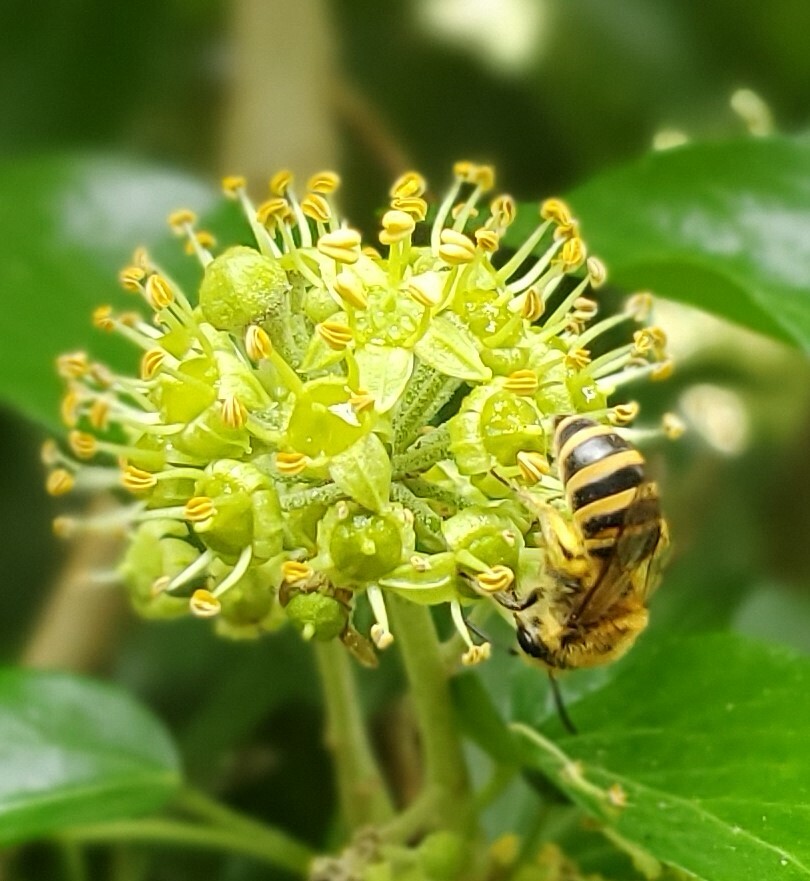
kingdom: Animalia
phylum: Arthropoda
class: Insecta
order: Hymenoptera
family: Colletidae
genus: Colletes
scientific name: Colletes hederae
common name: Ivy bee
